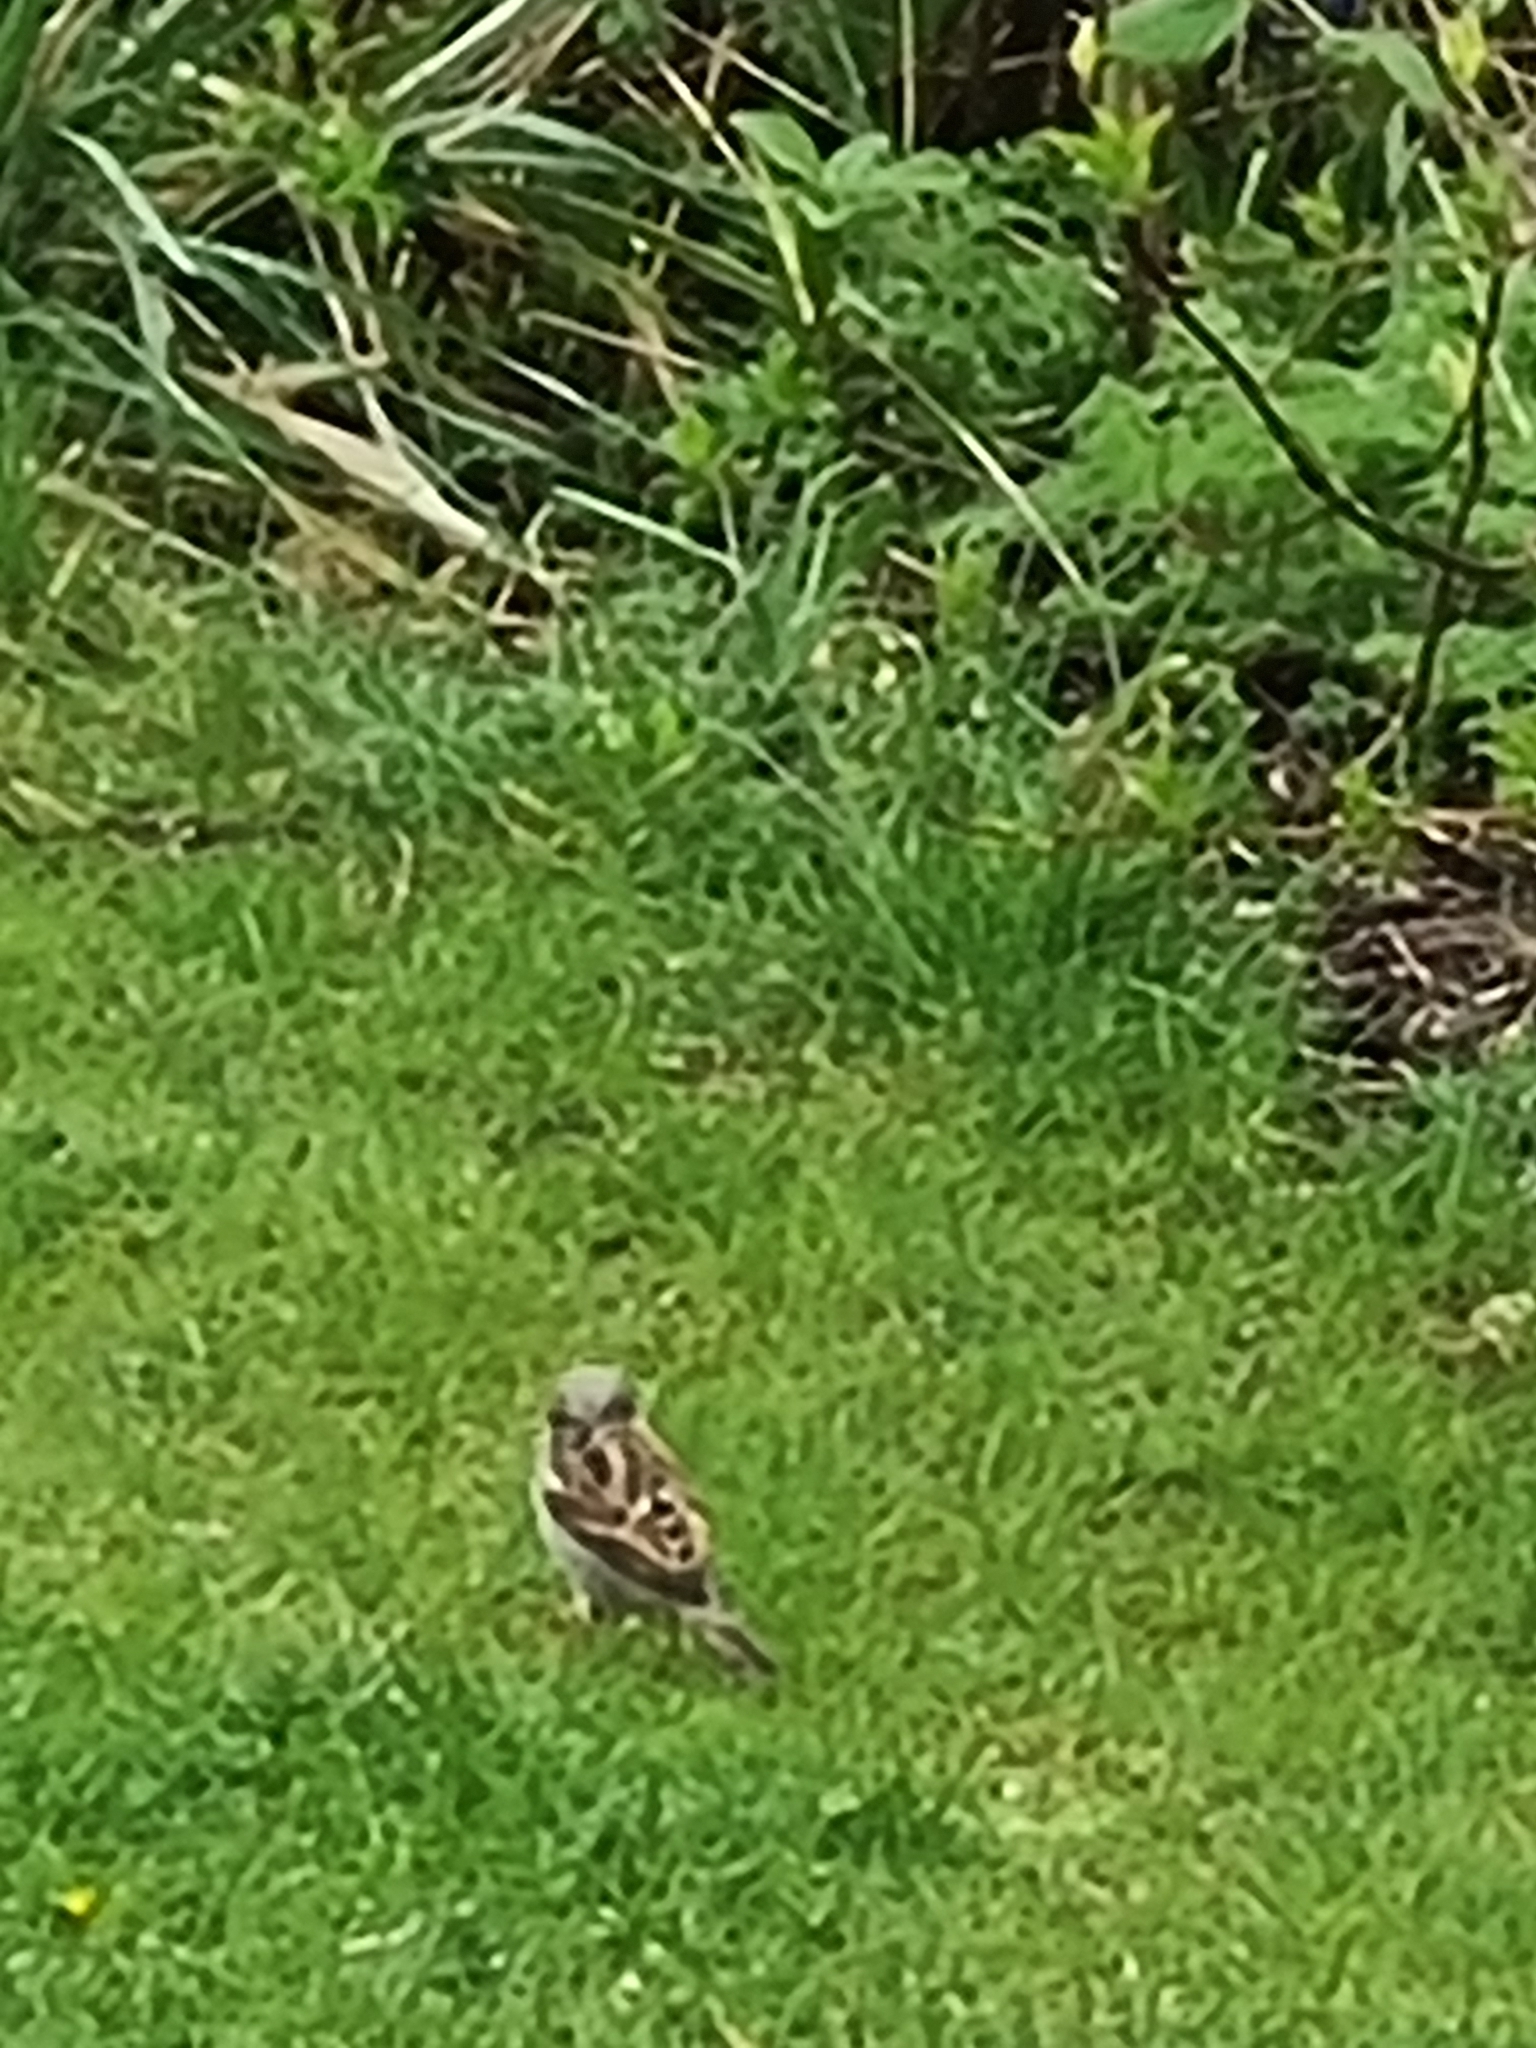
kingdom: Animalia
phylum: Chordata
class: Aves
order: Passeriformes
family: Passeridae
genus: Passer
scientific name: Passer domesticus
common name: House sparrow
